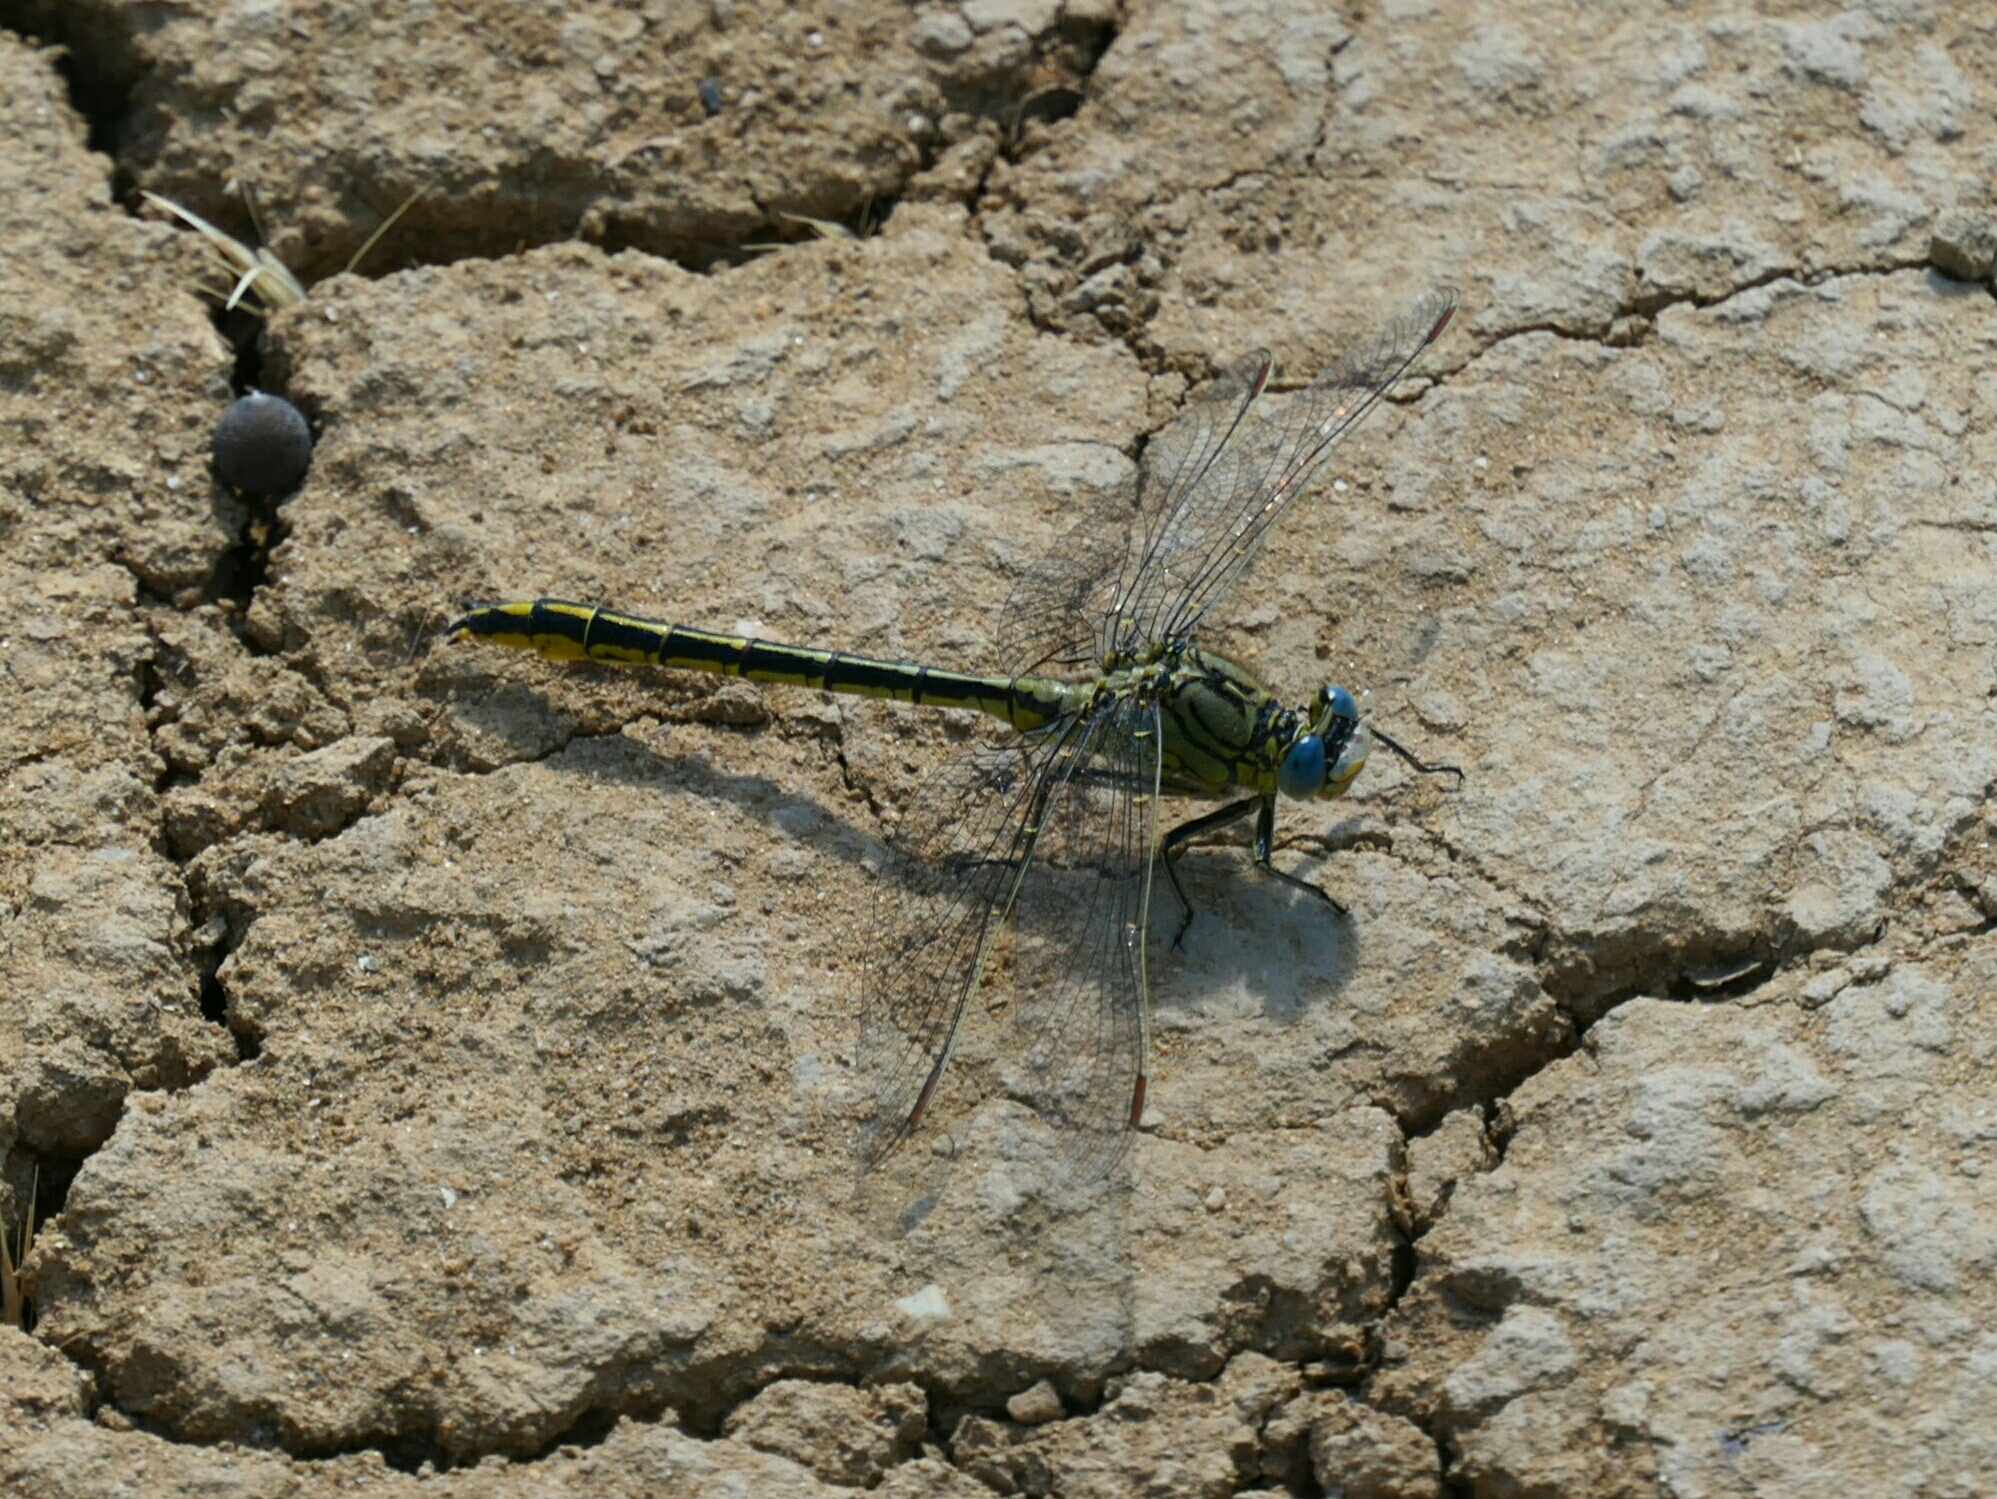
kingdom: Animalia
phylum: Arthropoda
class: Insecta
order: Odonata
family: Gomphidae
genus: Gomphus
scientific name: Gomphus pulchellus
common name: Western clubtail
